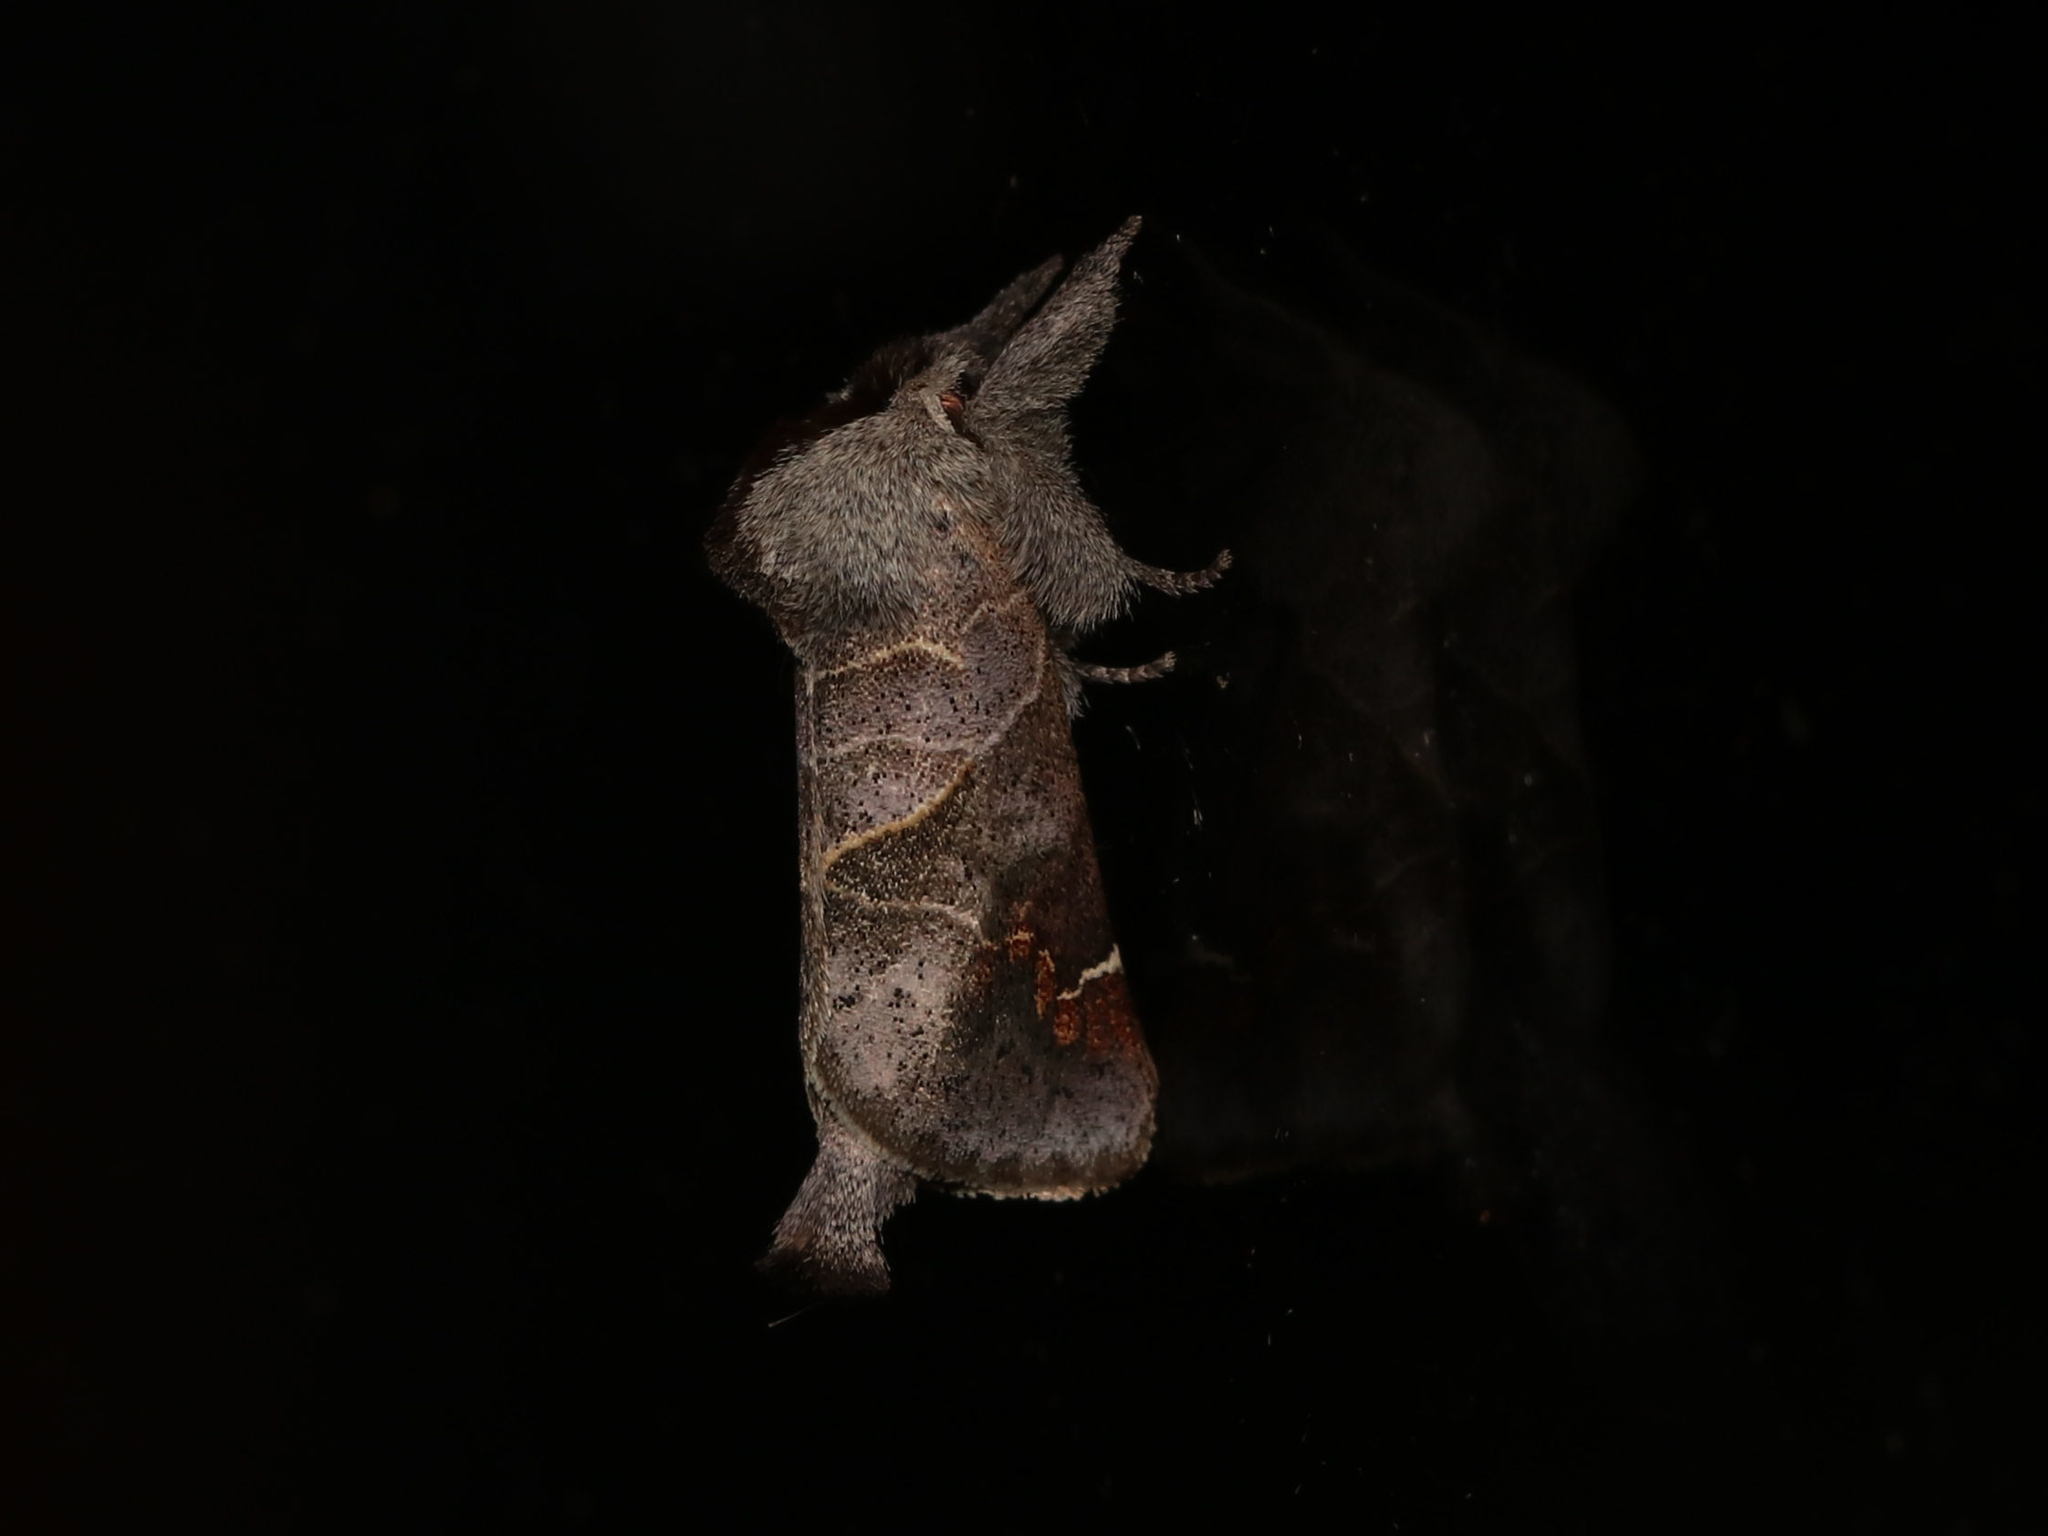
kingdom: Animalia
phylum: Arthropoda
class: Insecta
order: Lepidoptera
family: Notodontidae
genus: Clostera
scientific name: Clostera apicalis
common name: Apical prominent
